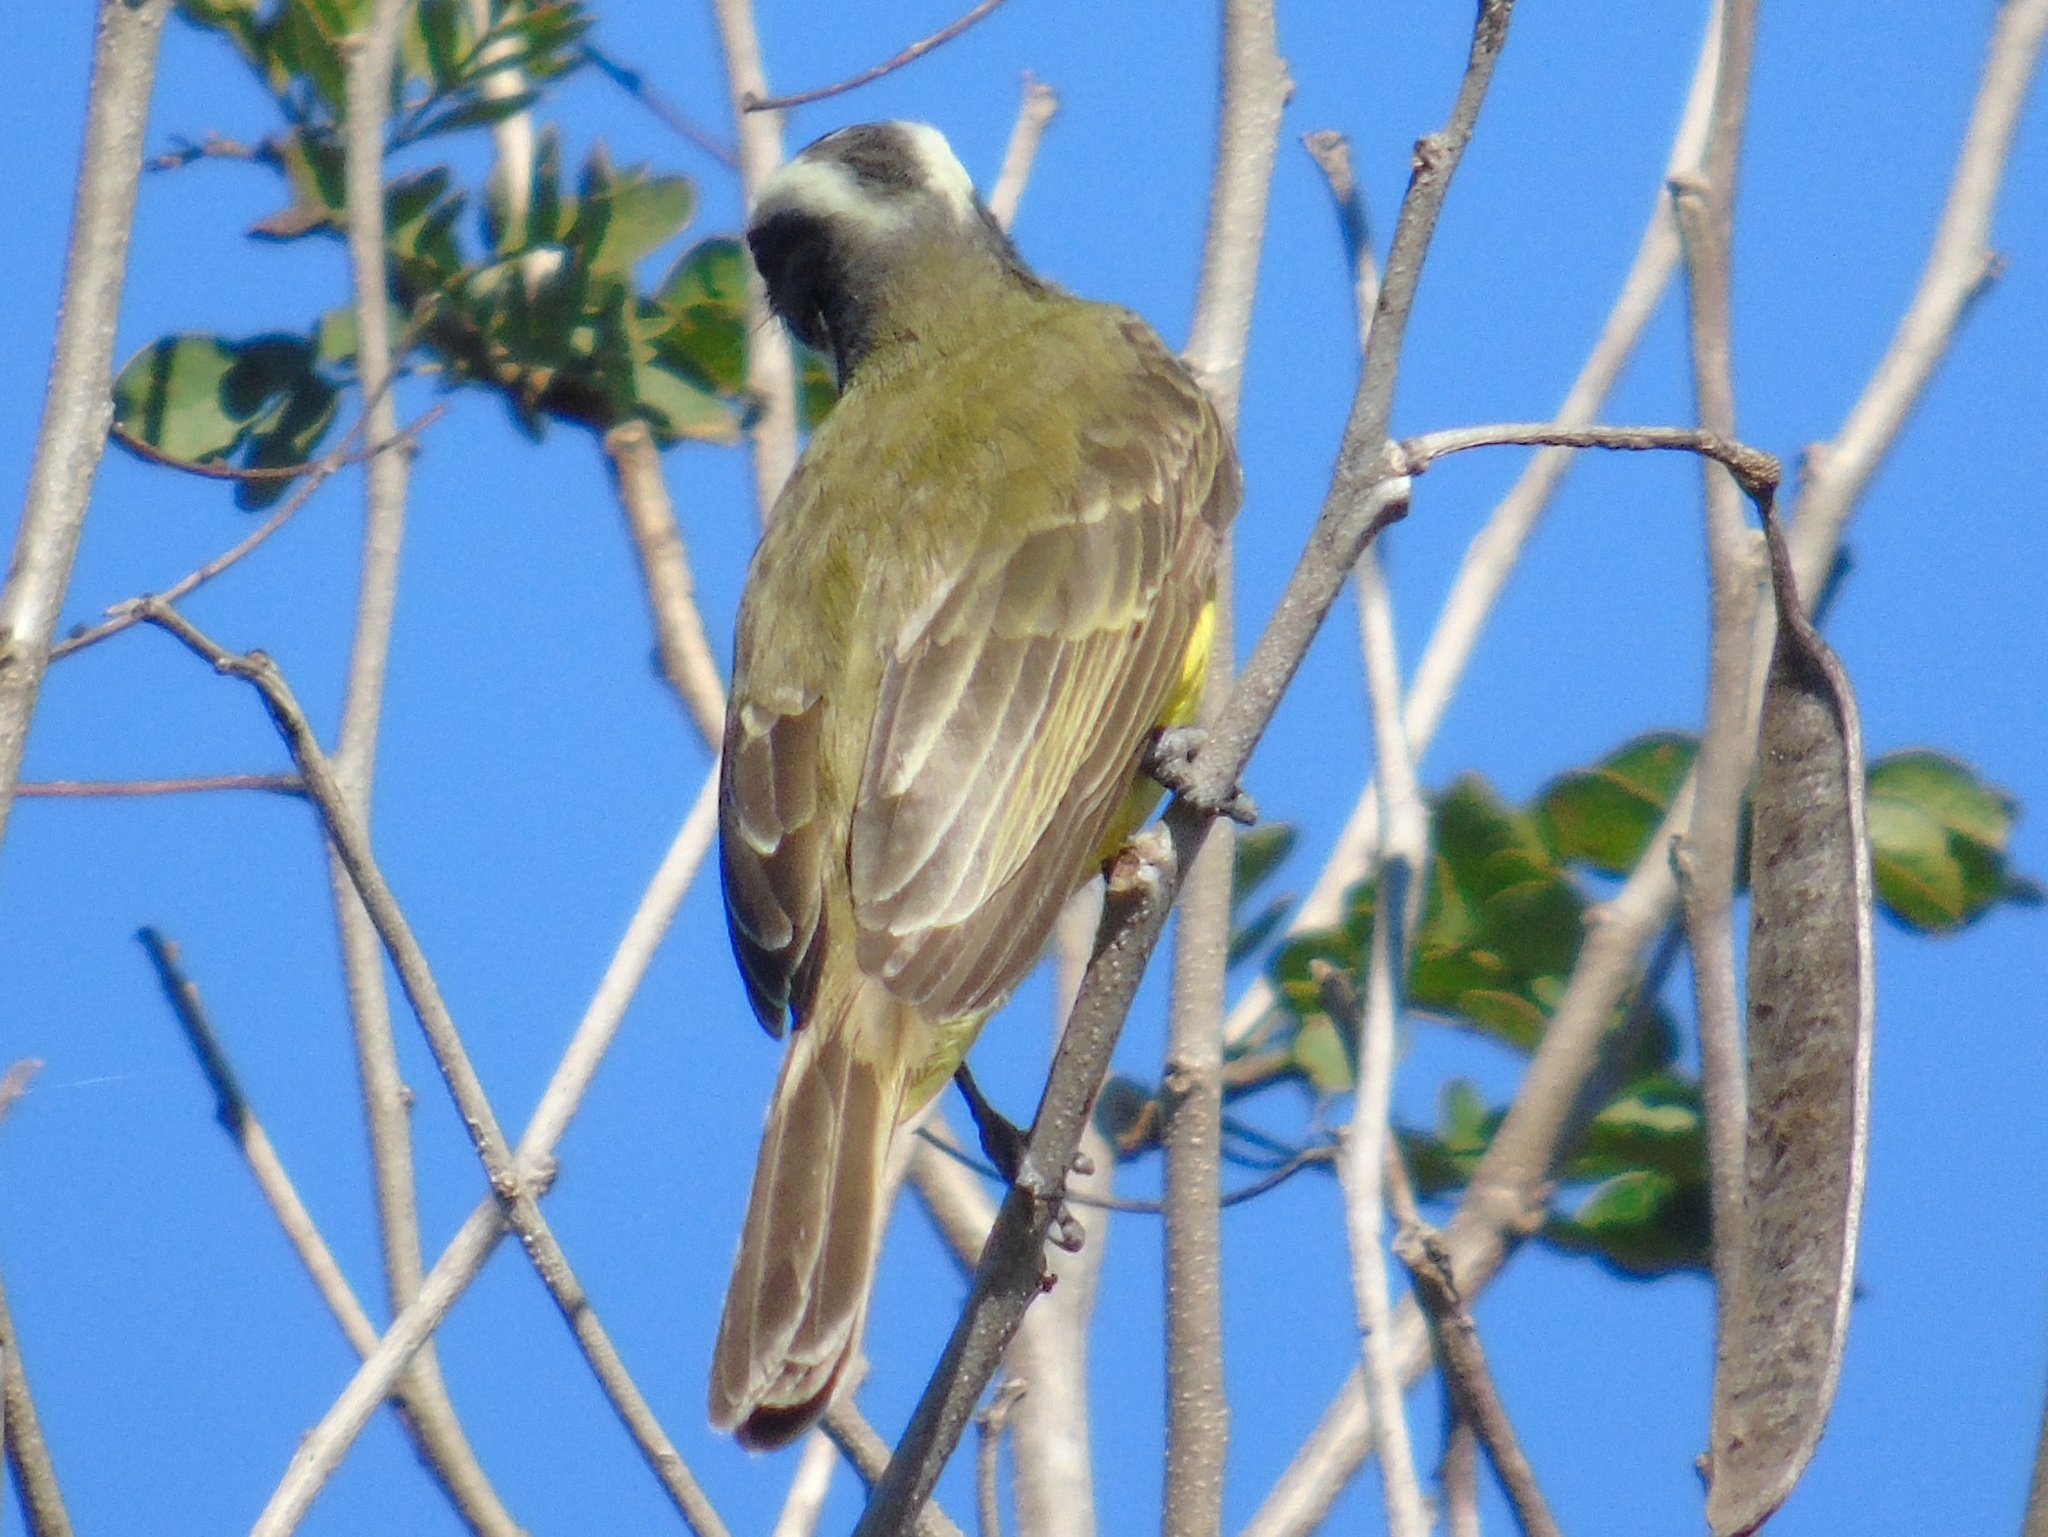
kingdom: Animalia
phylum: Chordata
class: Aves
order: Passeriformes
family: Tyrannidae
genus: Myiozetetes
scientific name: Myiozetetes similis
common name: Social flycatcher
